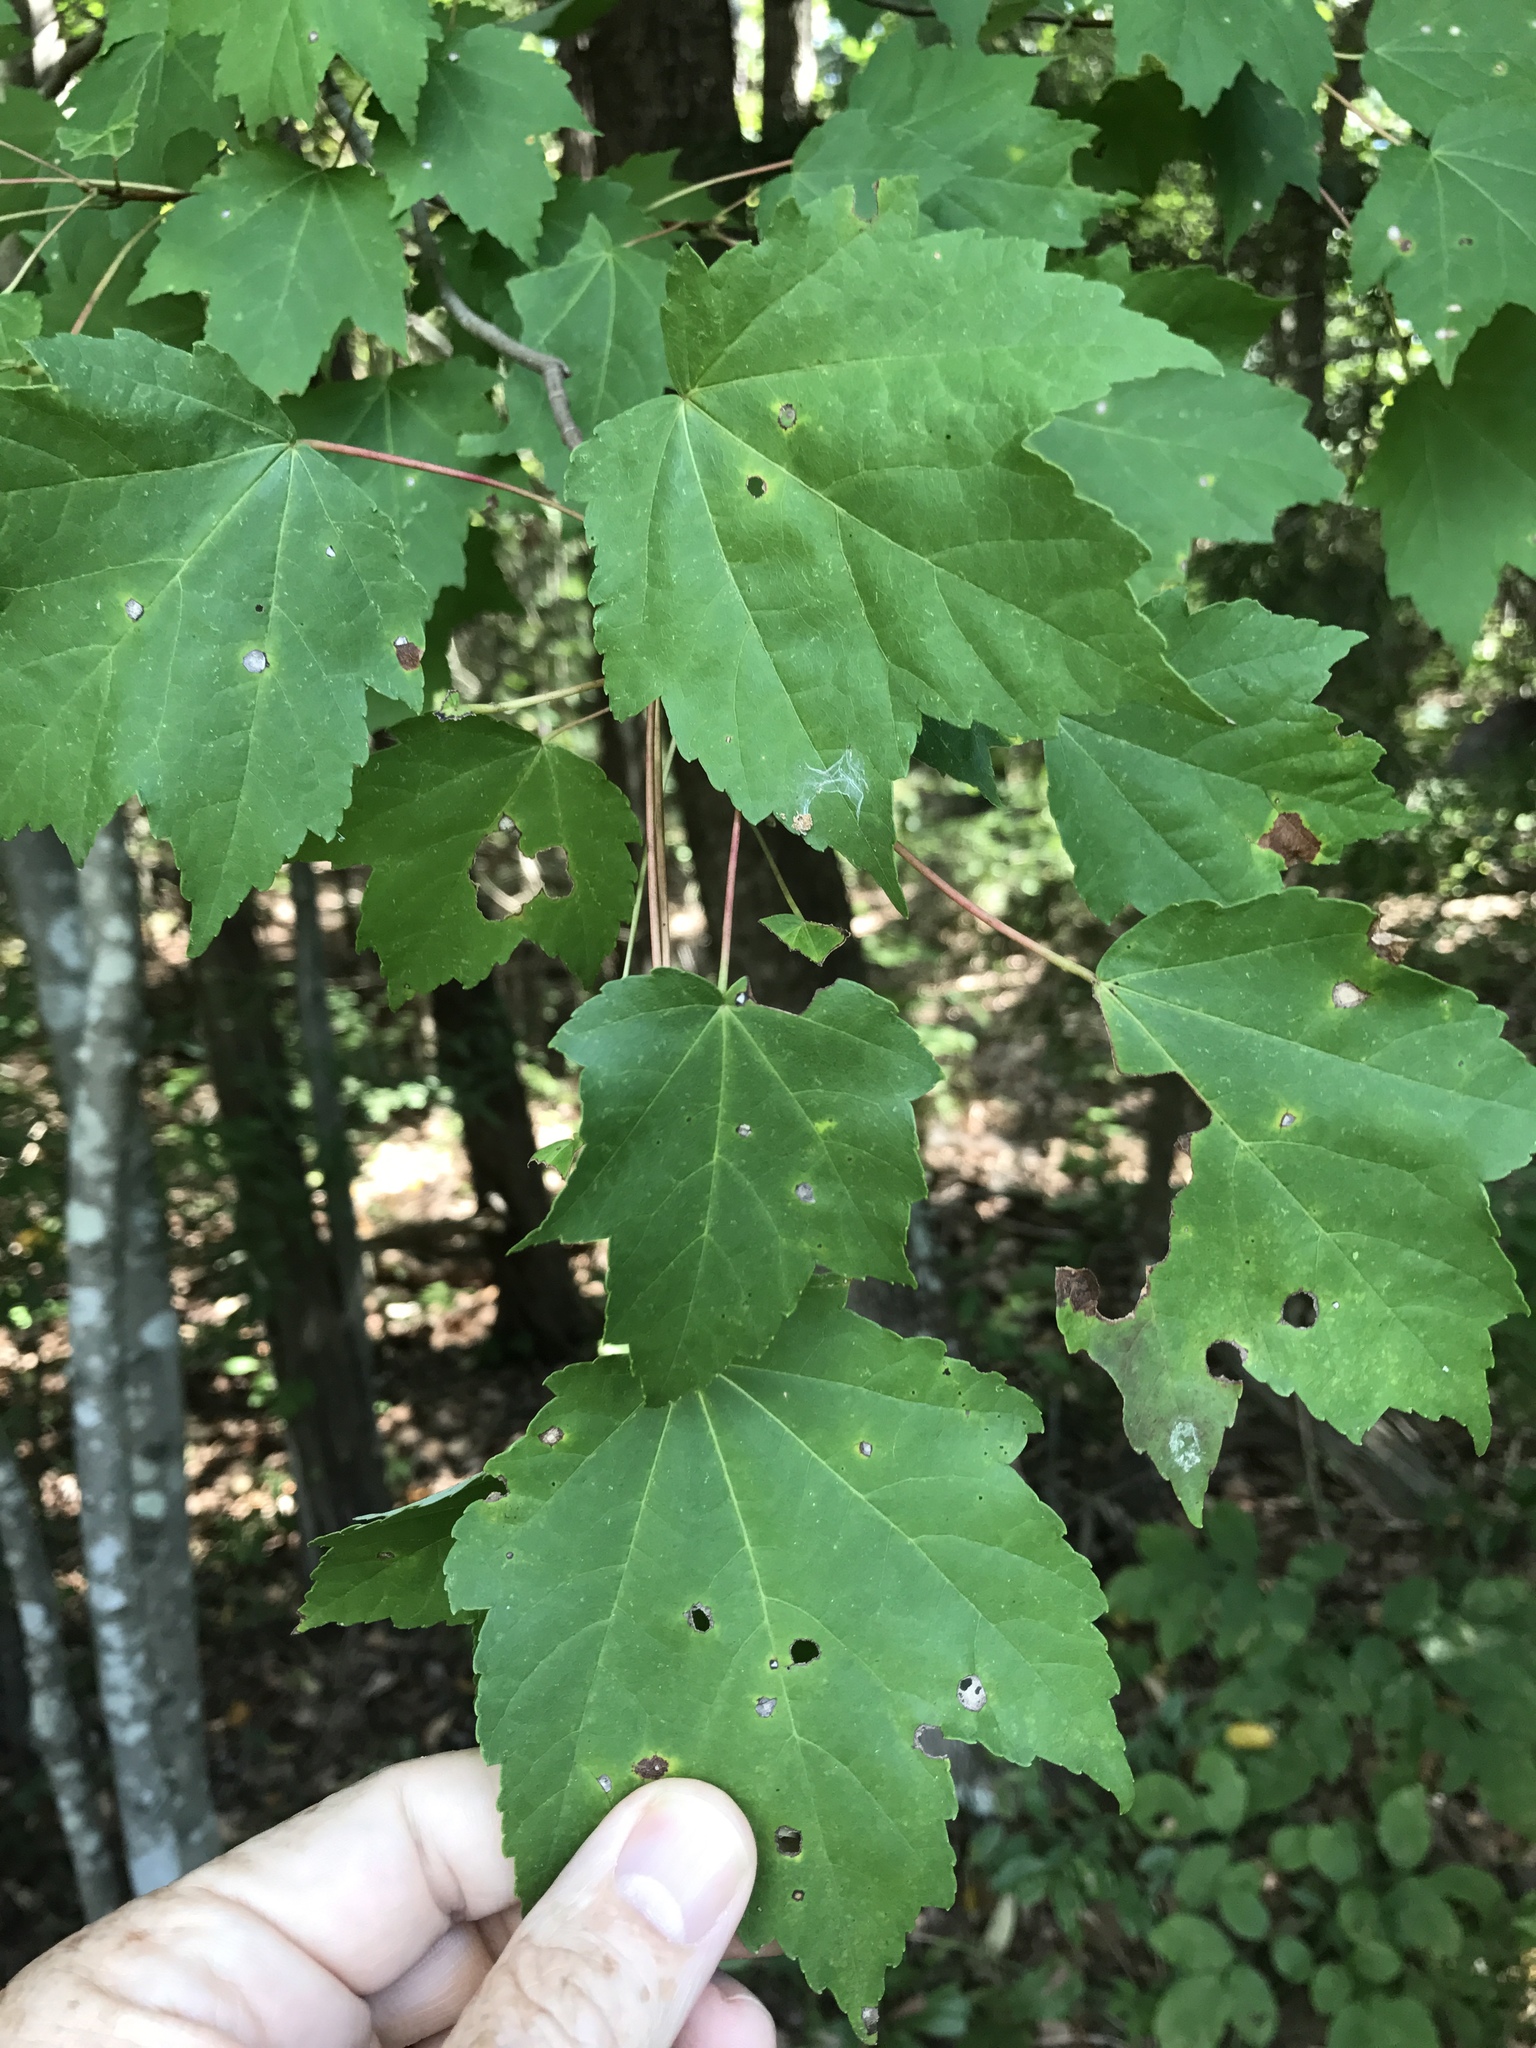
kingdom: Plantae
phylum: Tracheophyta
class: Magnoliopsida
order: Sapindales
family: Sapindaceae
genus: Acer
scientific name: Acer rubrum
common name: Red maple
